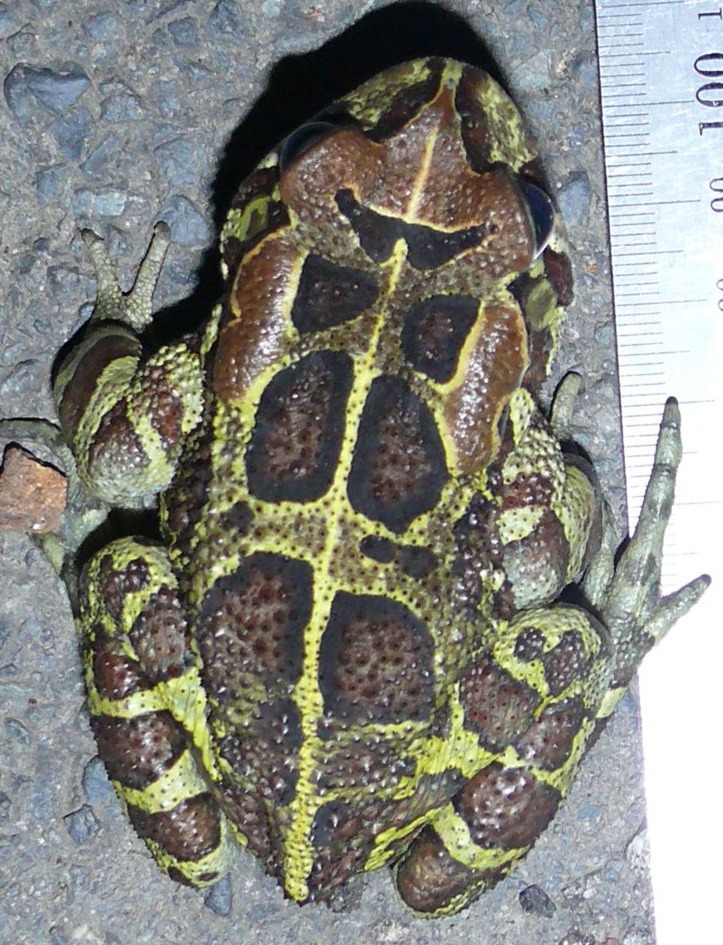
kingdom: Animalia
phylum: Chordata
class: Amphibia
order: Anura
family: Bufonidae
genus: Sclerophrys
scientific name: Sclerophrys pantherina
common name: Panther toad
